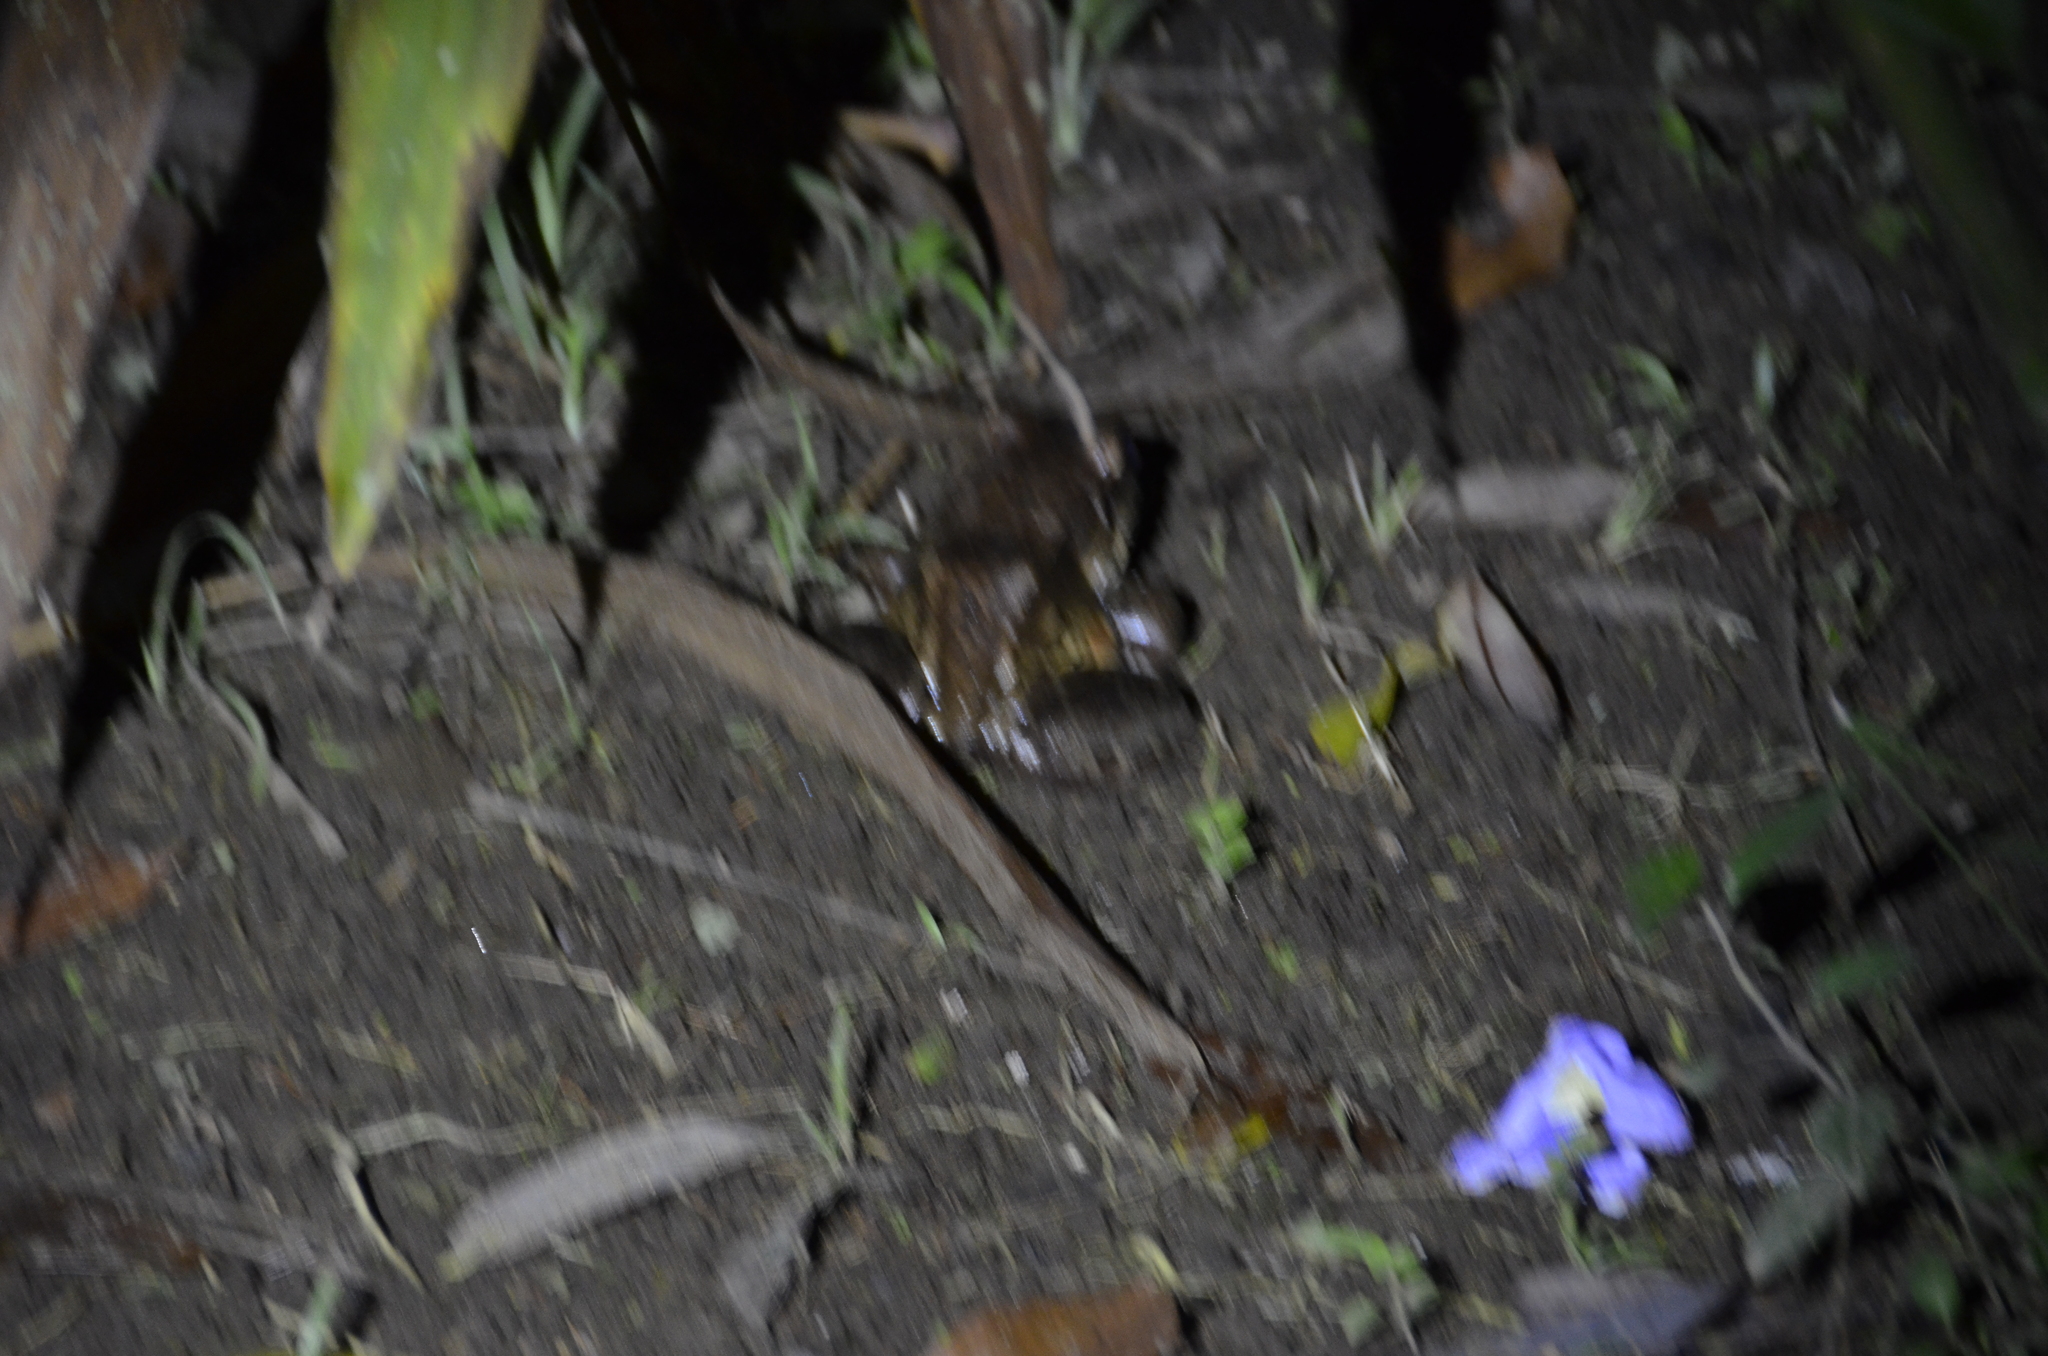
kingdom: Animalia
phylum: Chordata
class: Amphibia
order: Anura
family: Leptodactylidae
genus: Leptodactylus
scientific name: Leptodactylus savagei
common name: Savage's thin-toed frog
